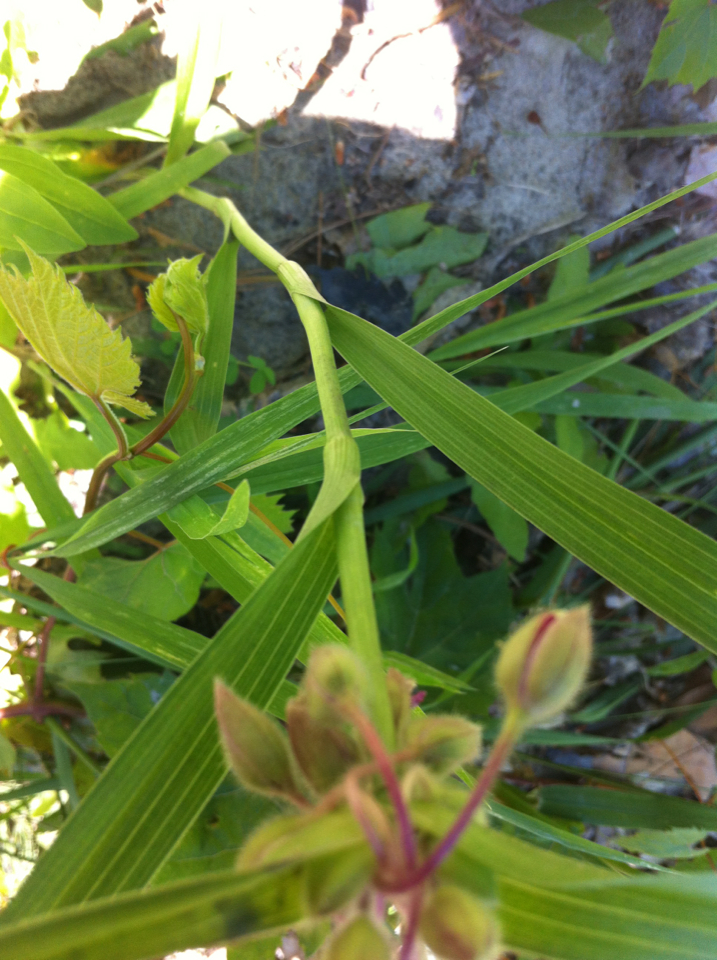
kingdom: Plantae
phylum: Tracheophyta
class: Liliopsida
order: Commelinales
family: Commelinaceae
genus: Tradescantia
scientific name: Tradescantia virginiana
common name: Spiderwort
